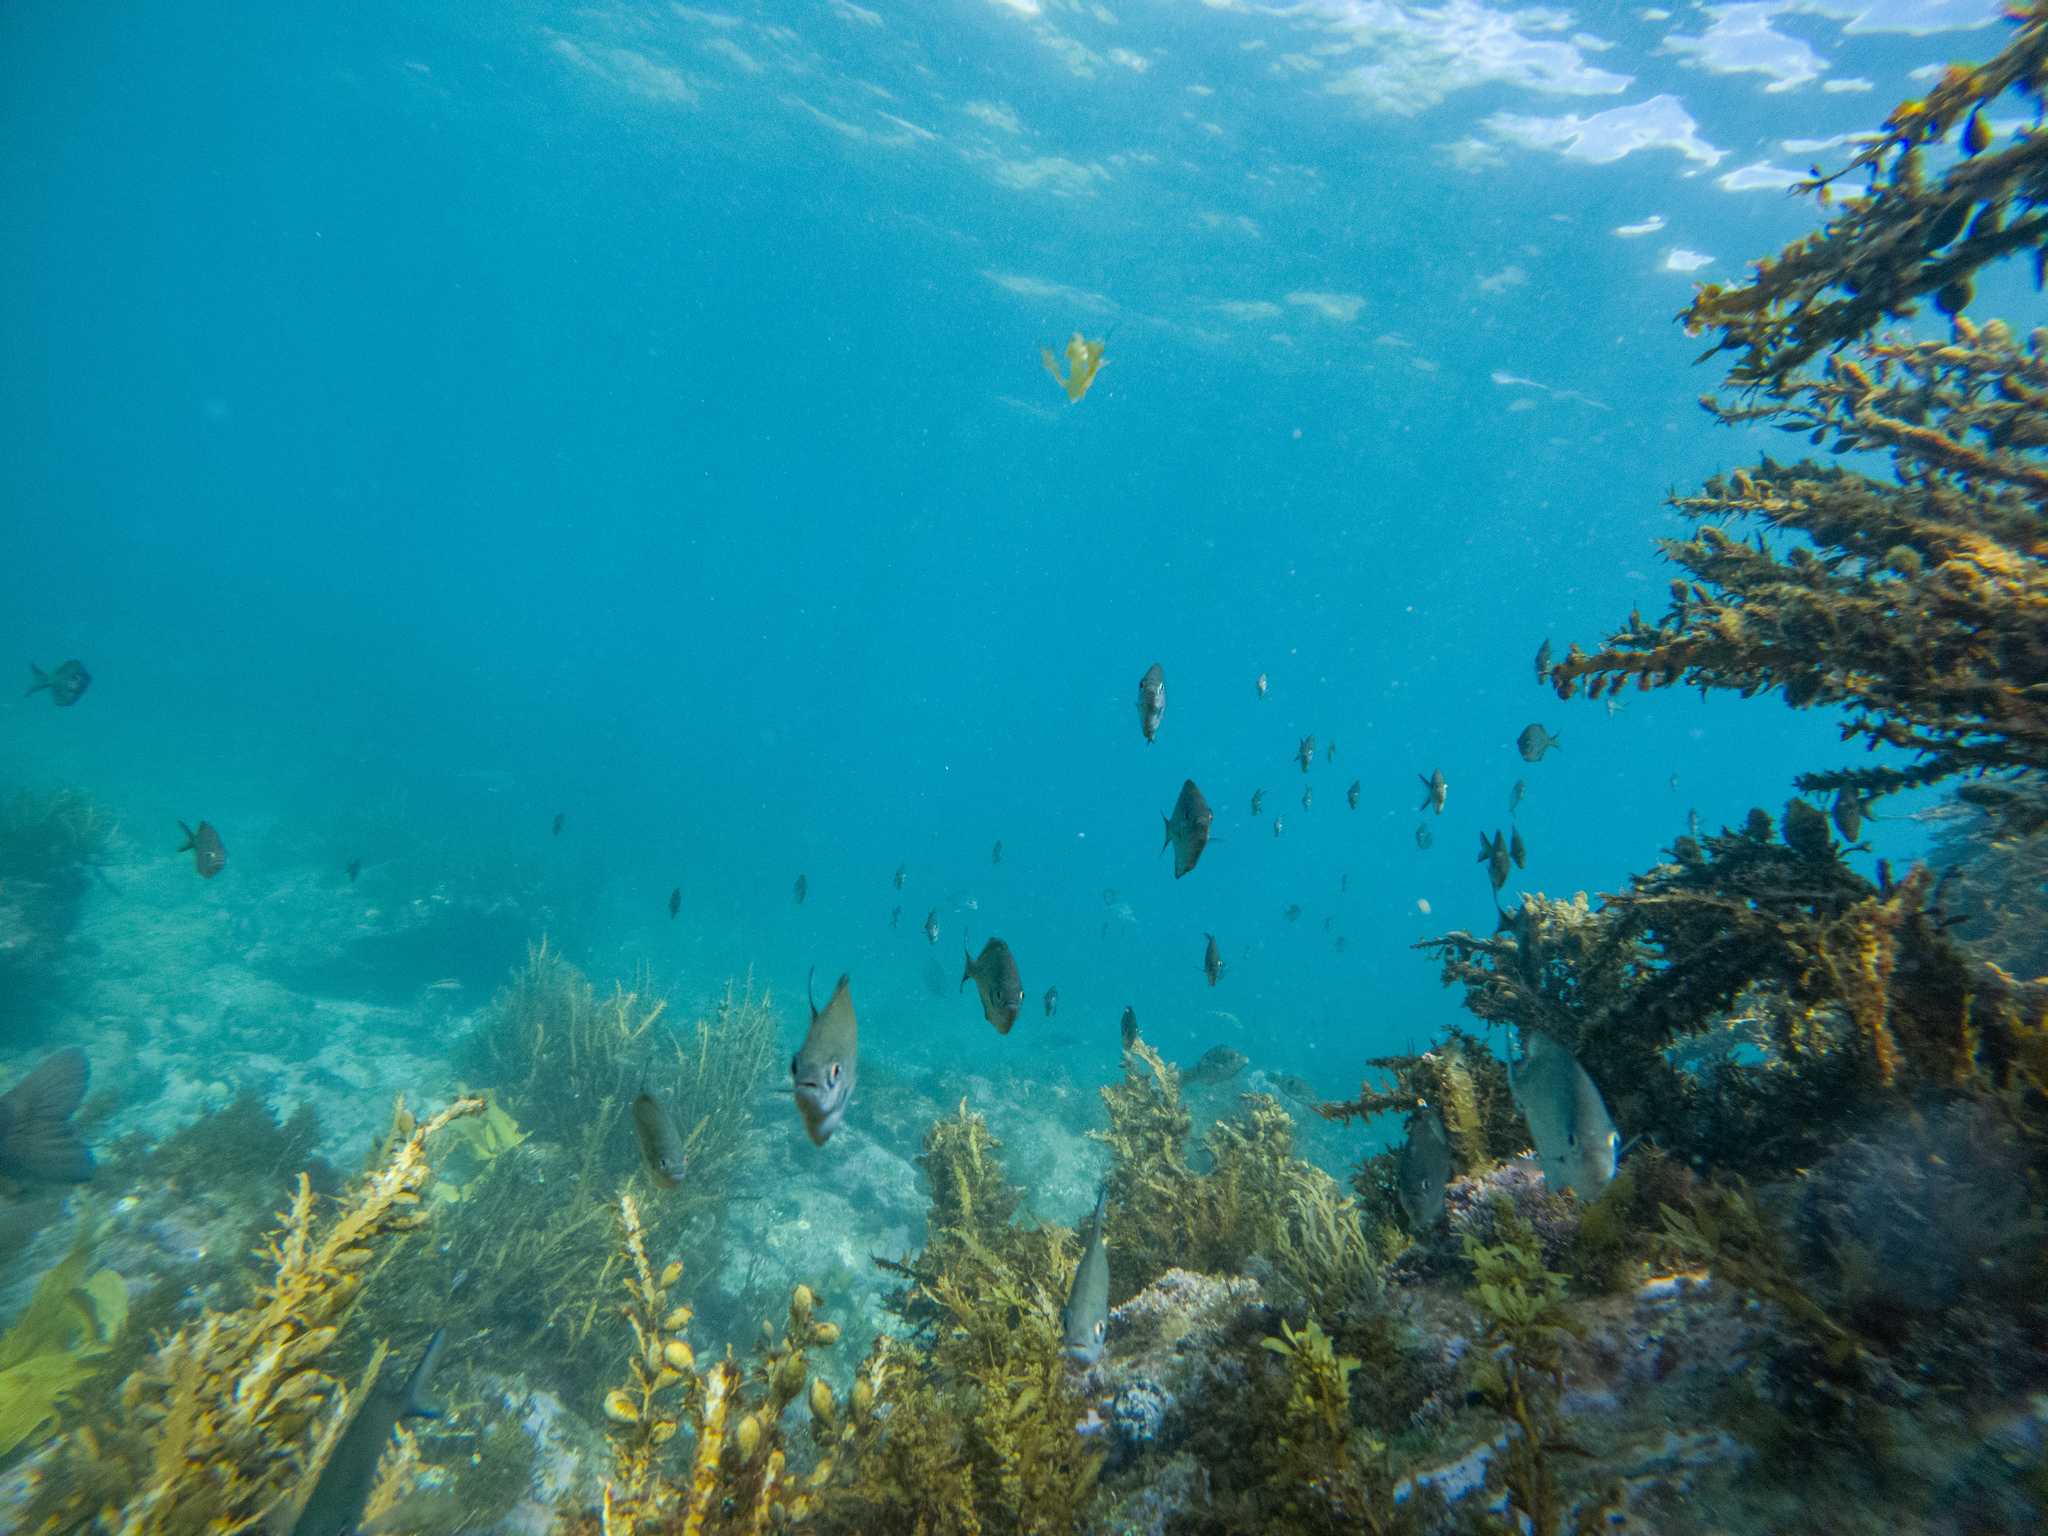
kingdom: Animalia
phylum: Chordata
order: Perciformes
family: Kyphosidae
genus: Scorpis
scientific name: Scorpis lineolata
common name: Sweep
